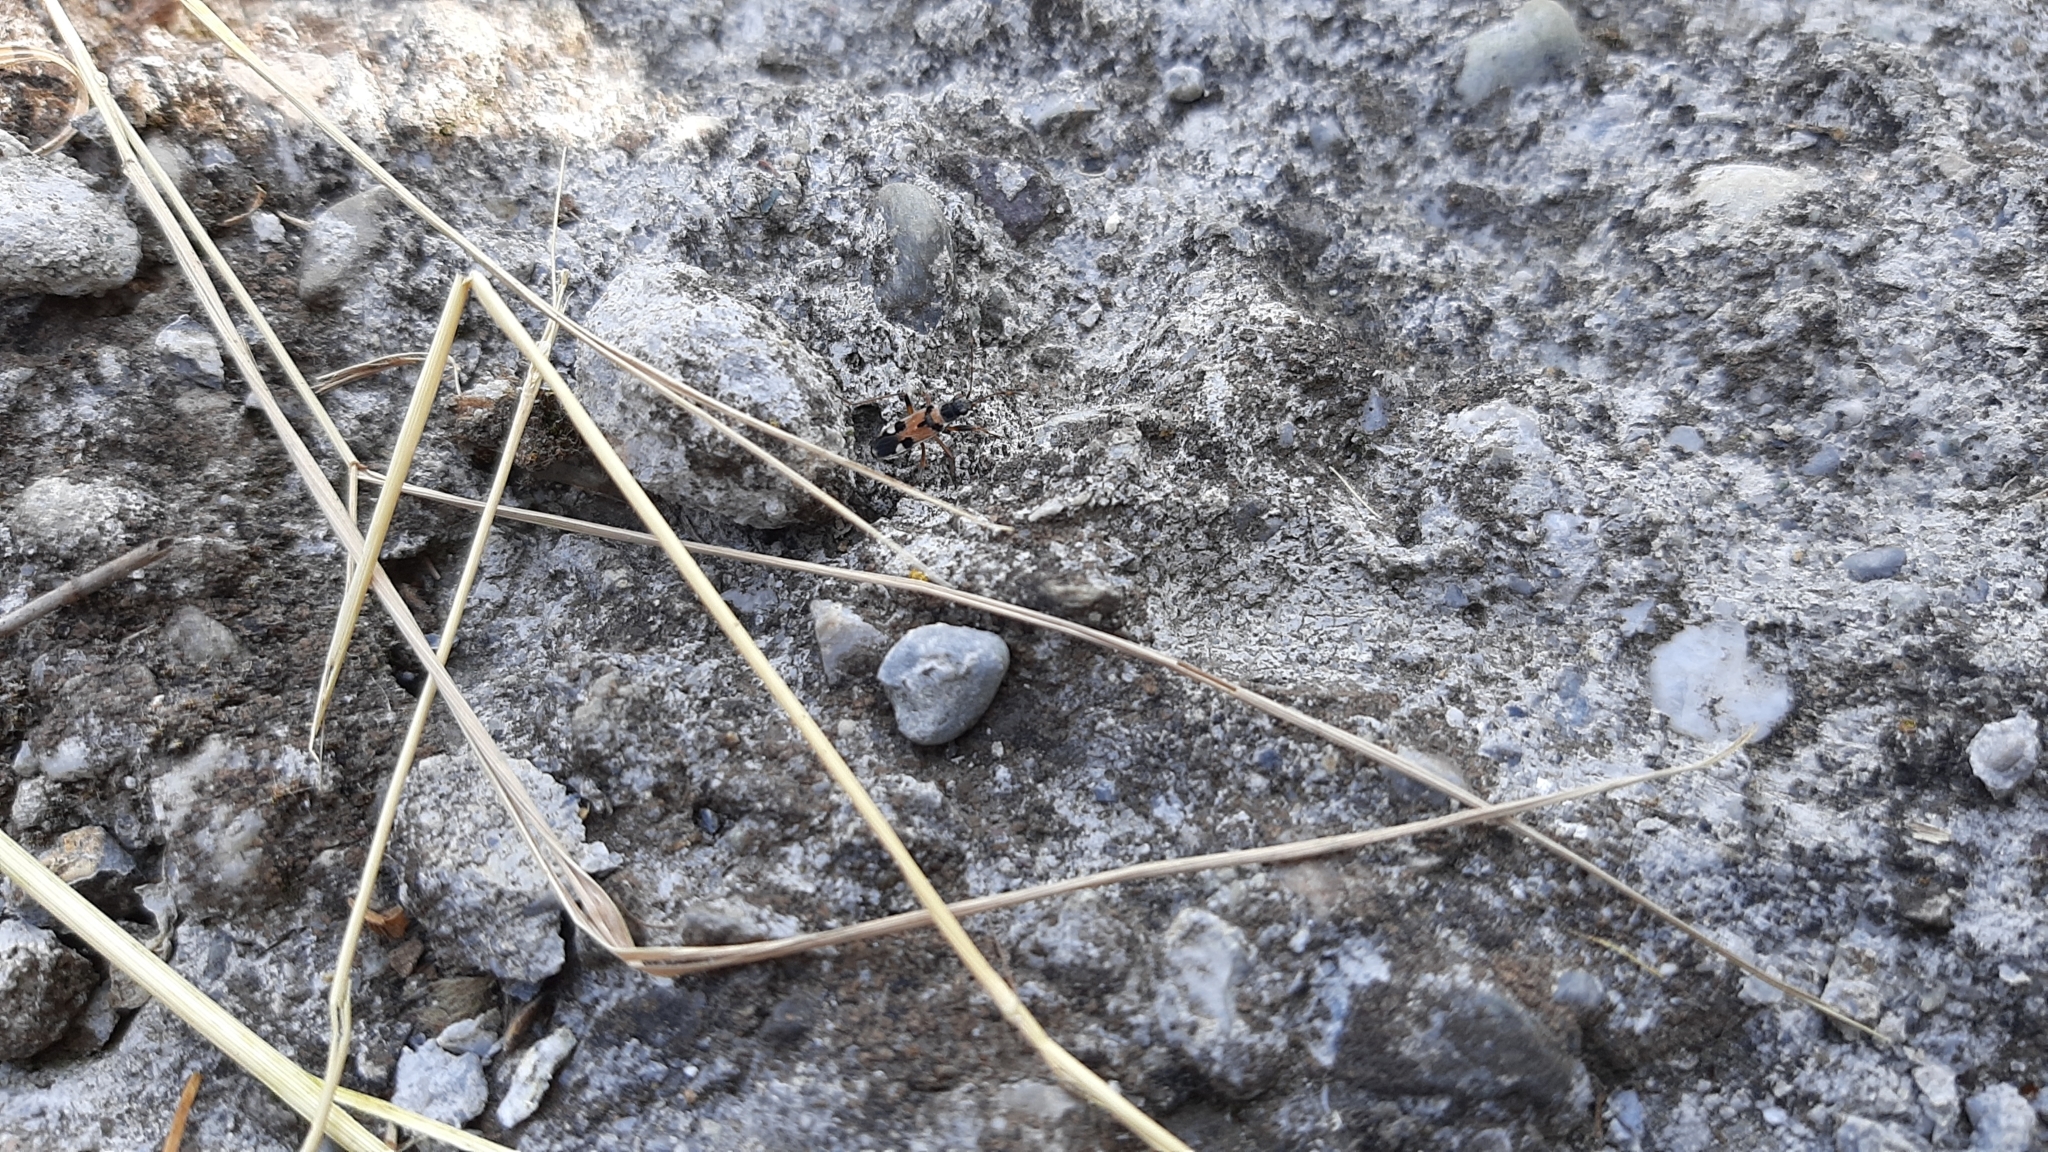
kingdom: Animalia
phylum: Arthropoda
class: Insecta
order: Hemiptera
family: Rhyparochromidae
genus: Beosus
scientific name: Beosus quadripunctatus
